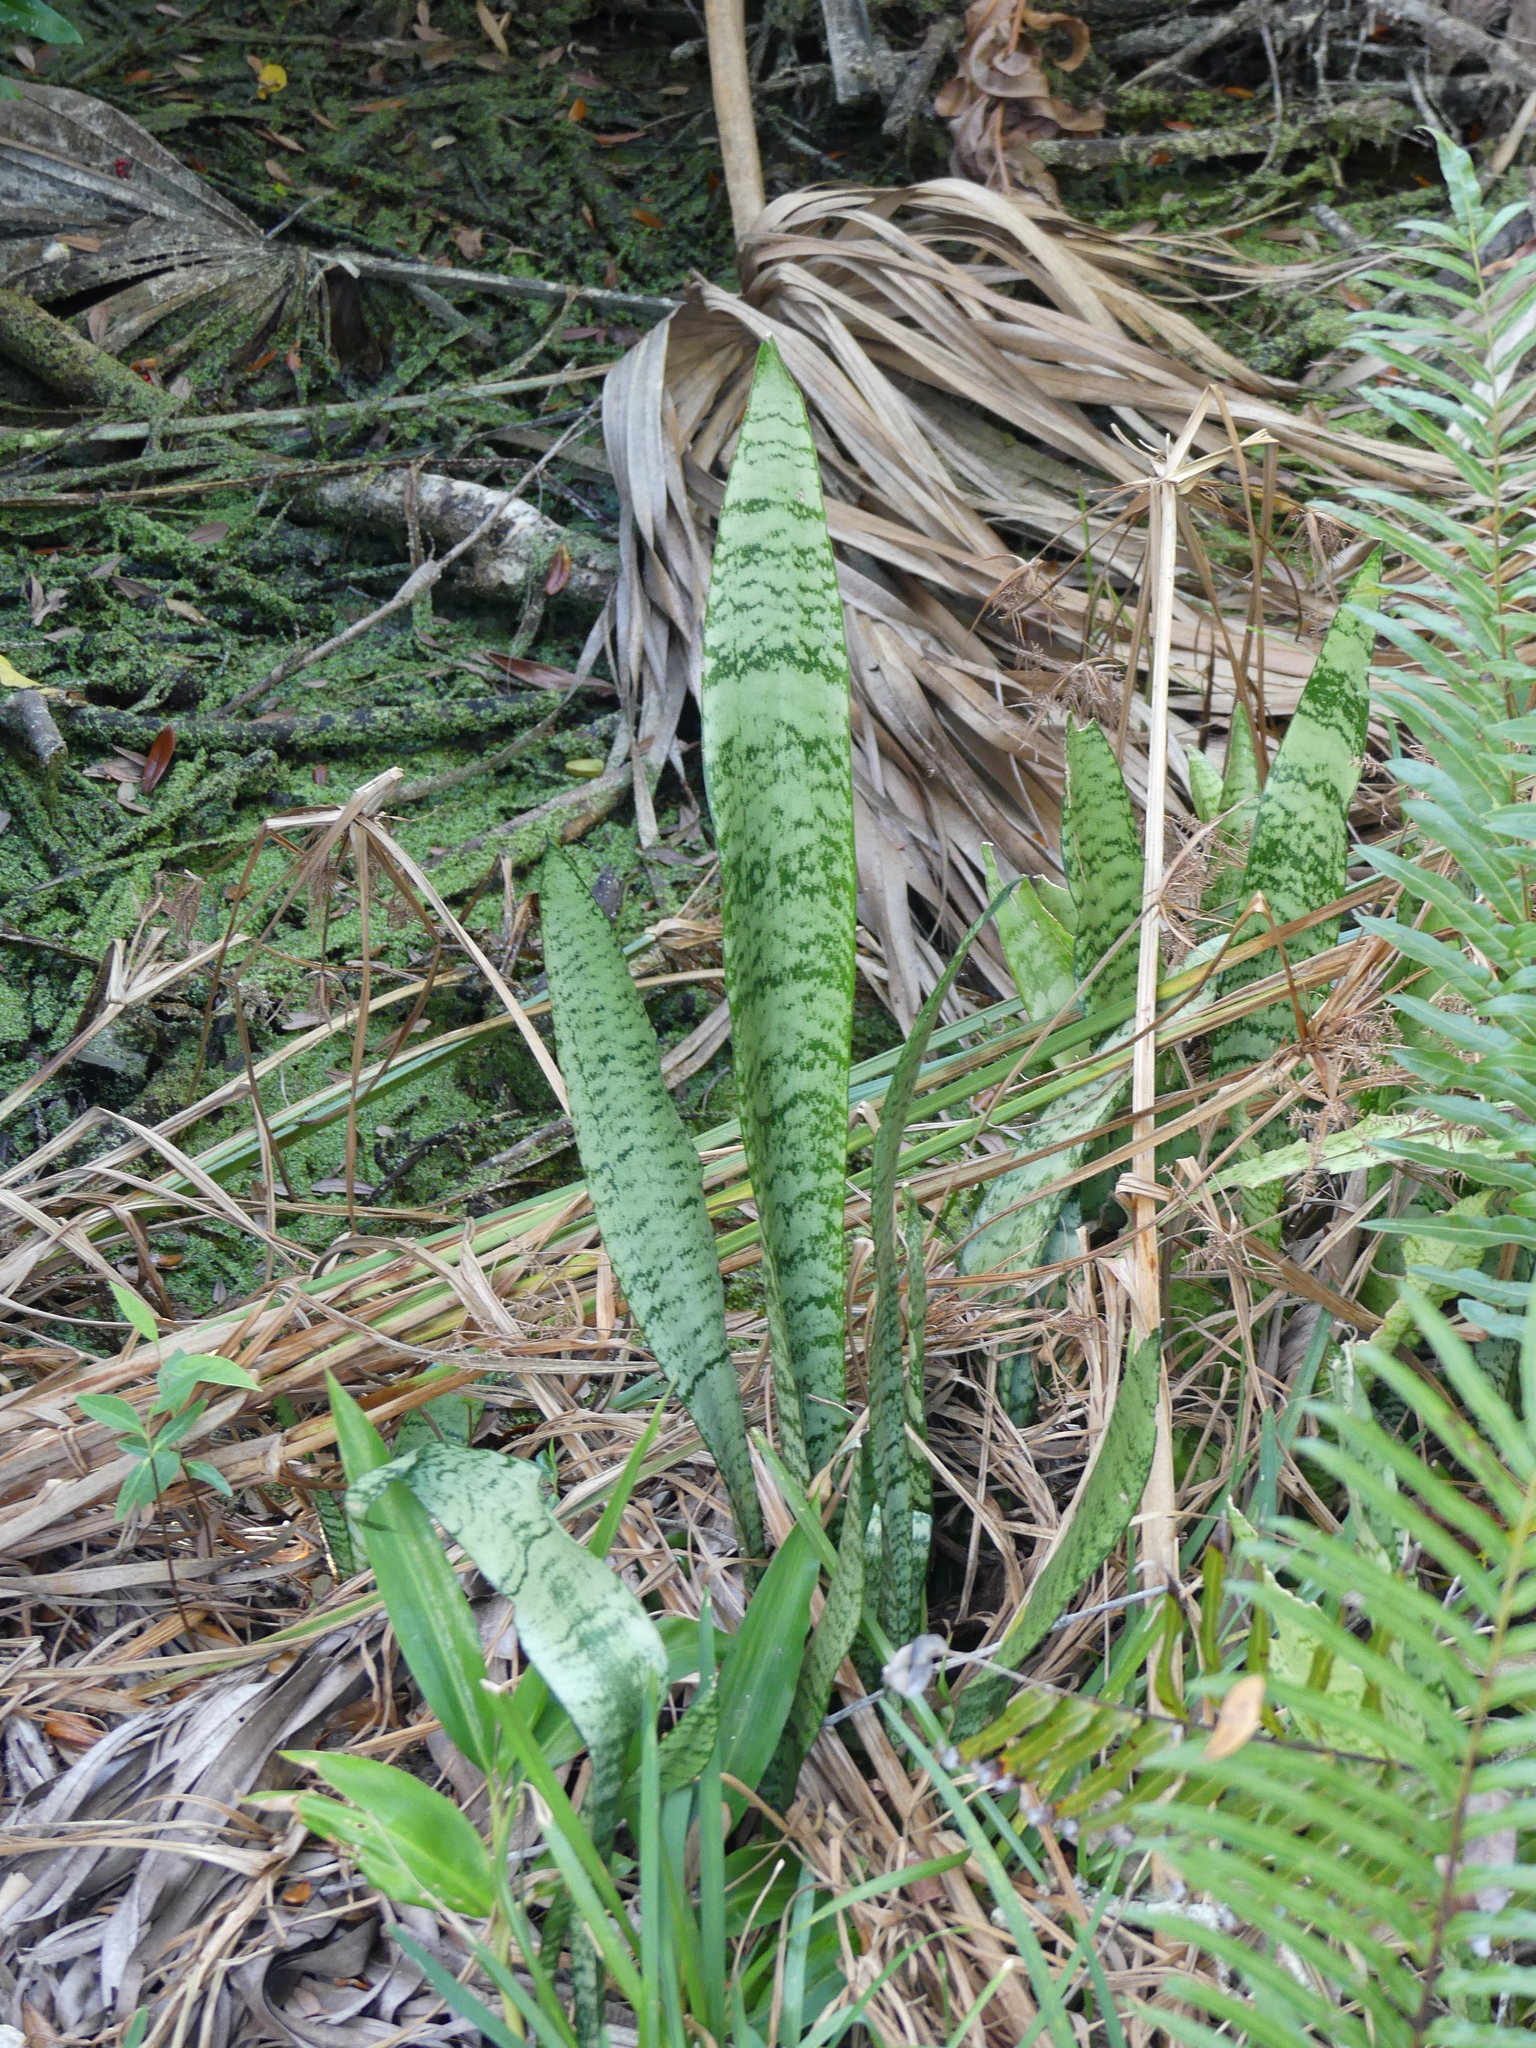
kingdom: Plantae
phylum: Tracheophyta
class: Liliopsida
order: Asparagales
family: Asparagaceae
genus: Dracaena
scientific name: Dracaena trifasciata
